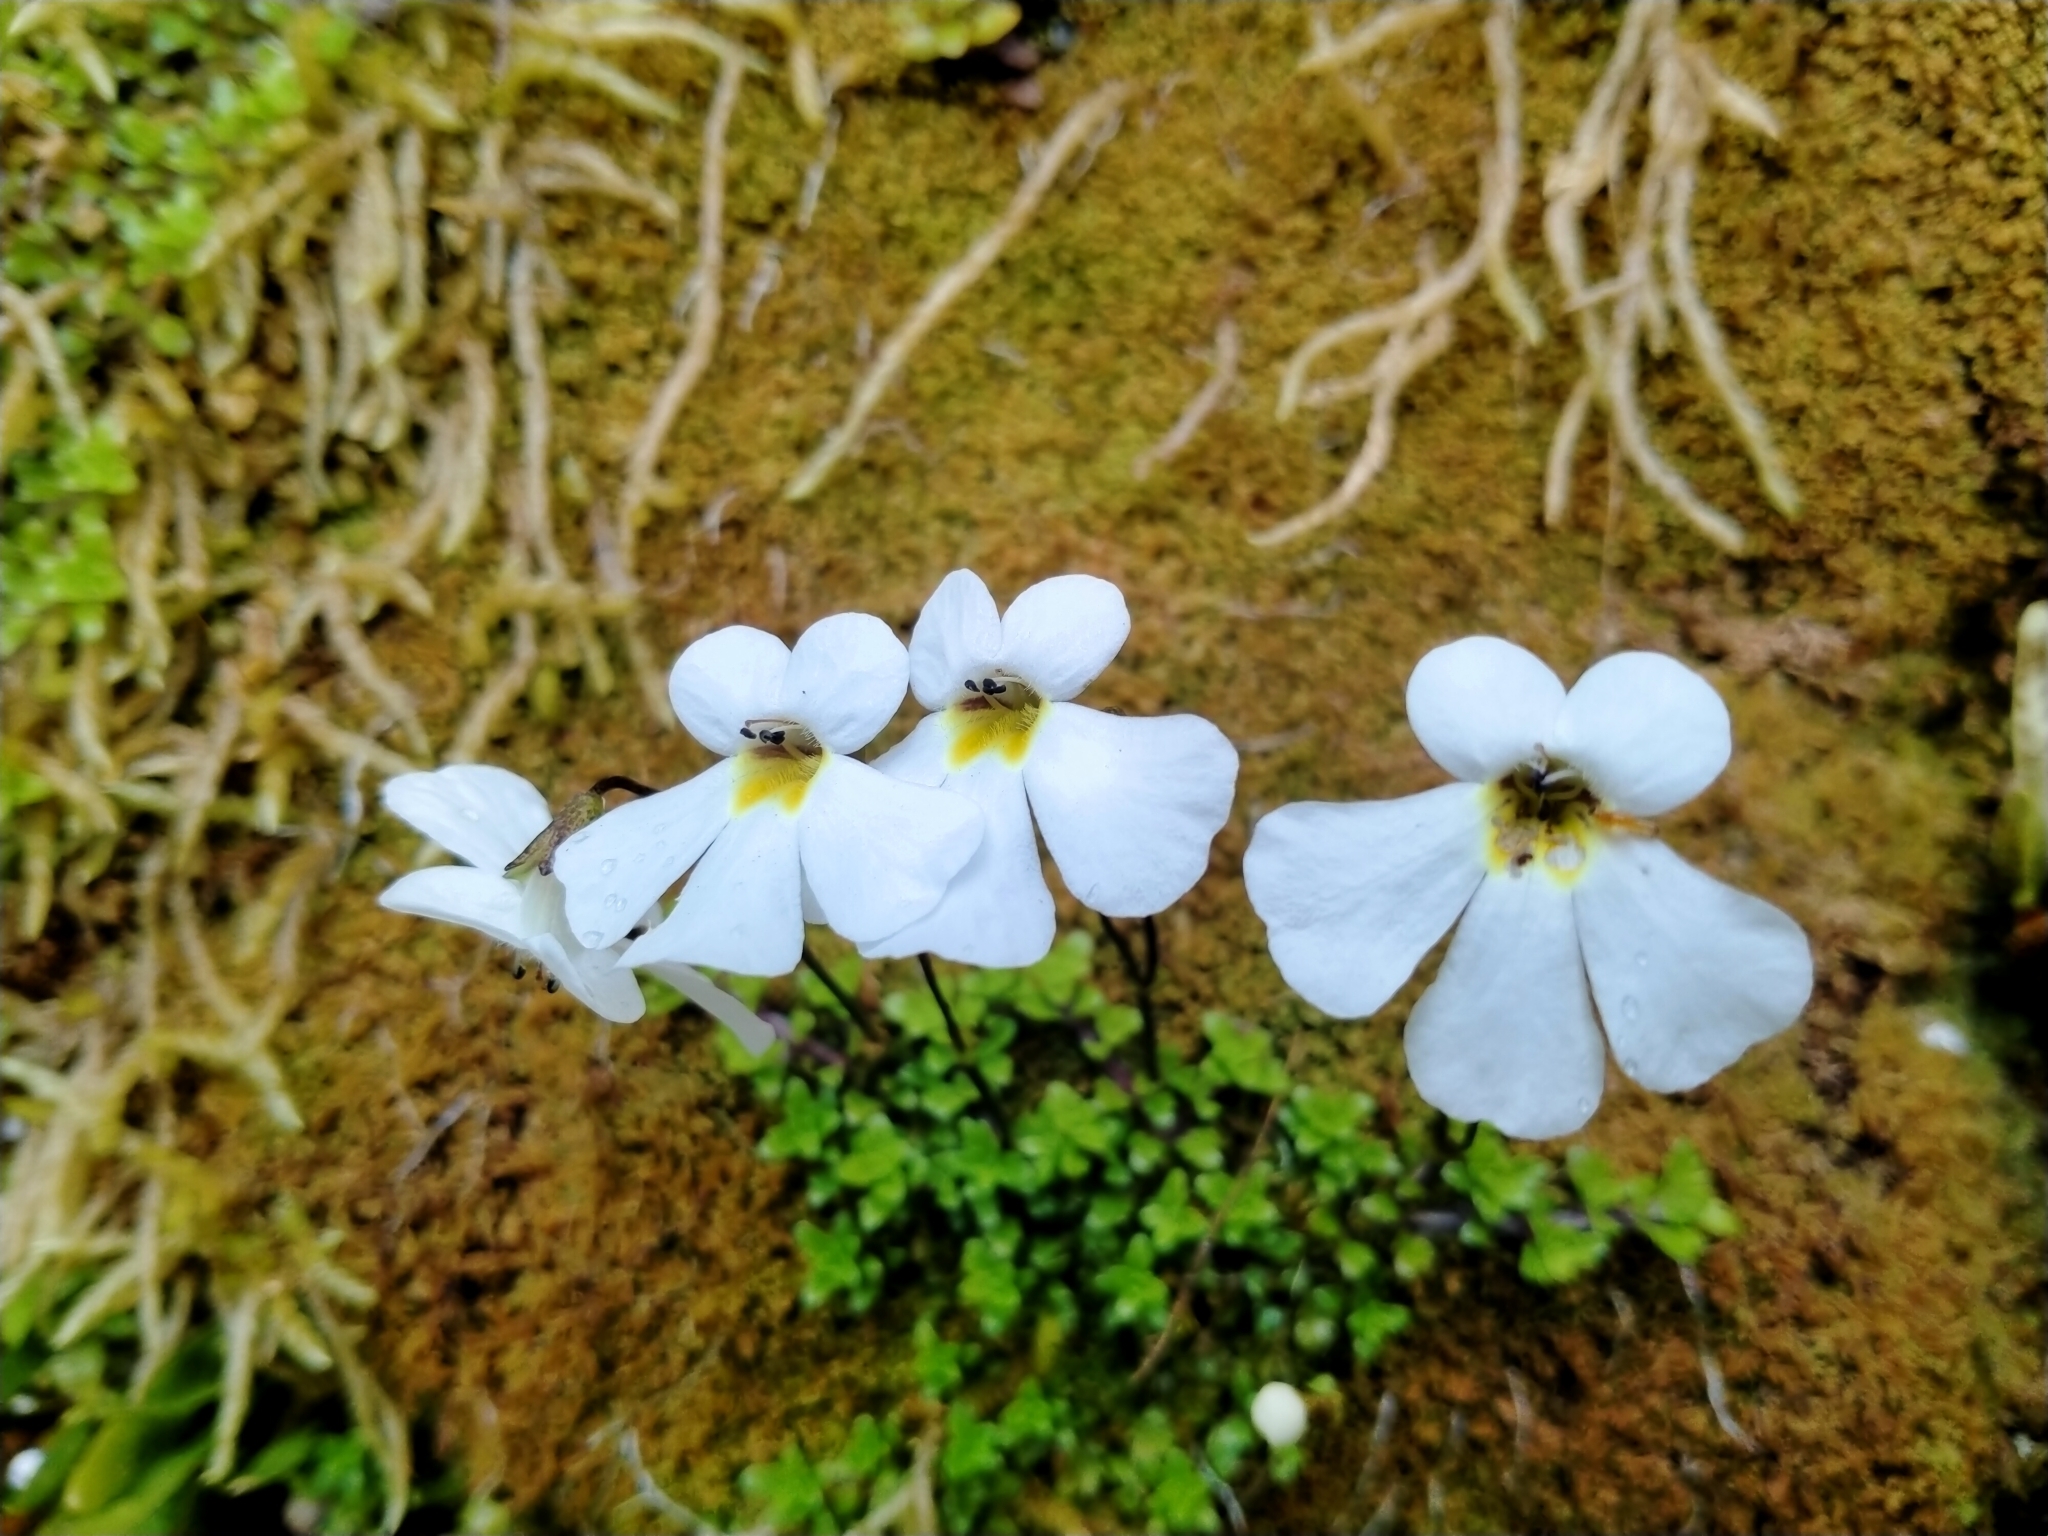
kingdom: Plantae
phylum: Tracheophyta
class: Magnoliopsida
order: Lamiales
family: Plantaginaceae
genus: Ourisia
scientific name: Ourisia caespitosa
